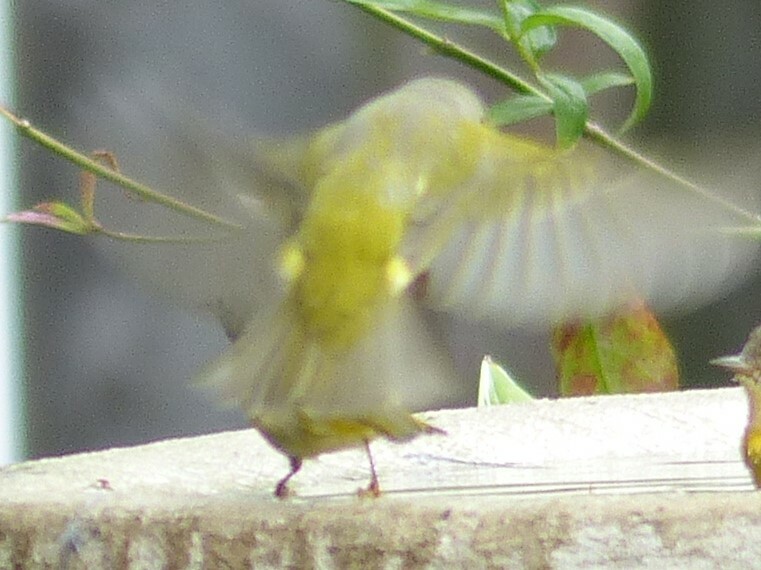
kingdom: Animalia
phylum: Chordata
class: Aves
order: Passeriformes
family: Parulidae
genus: Leiothlypis
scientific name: Leiothlypis ruficapilla
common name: Nashville warbler
